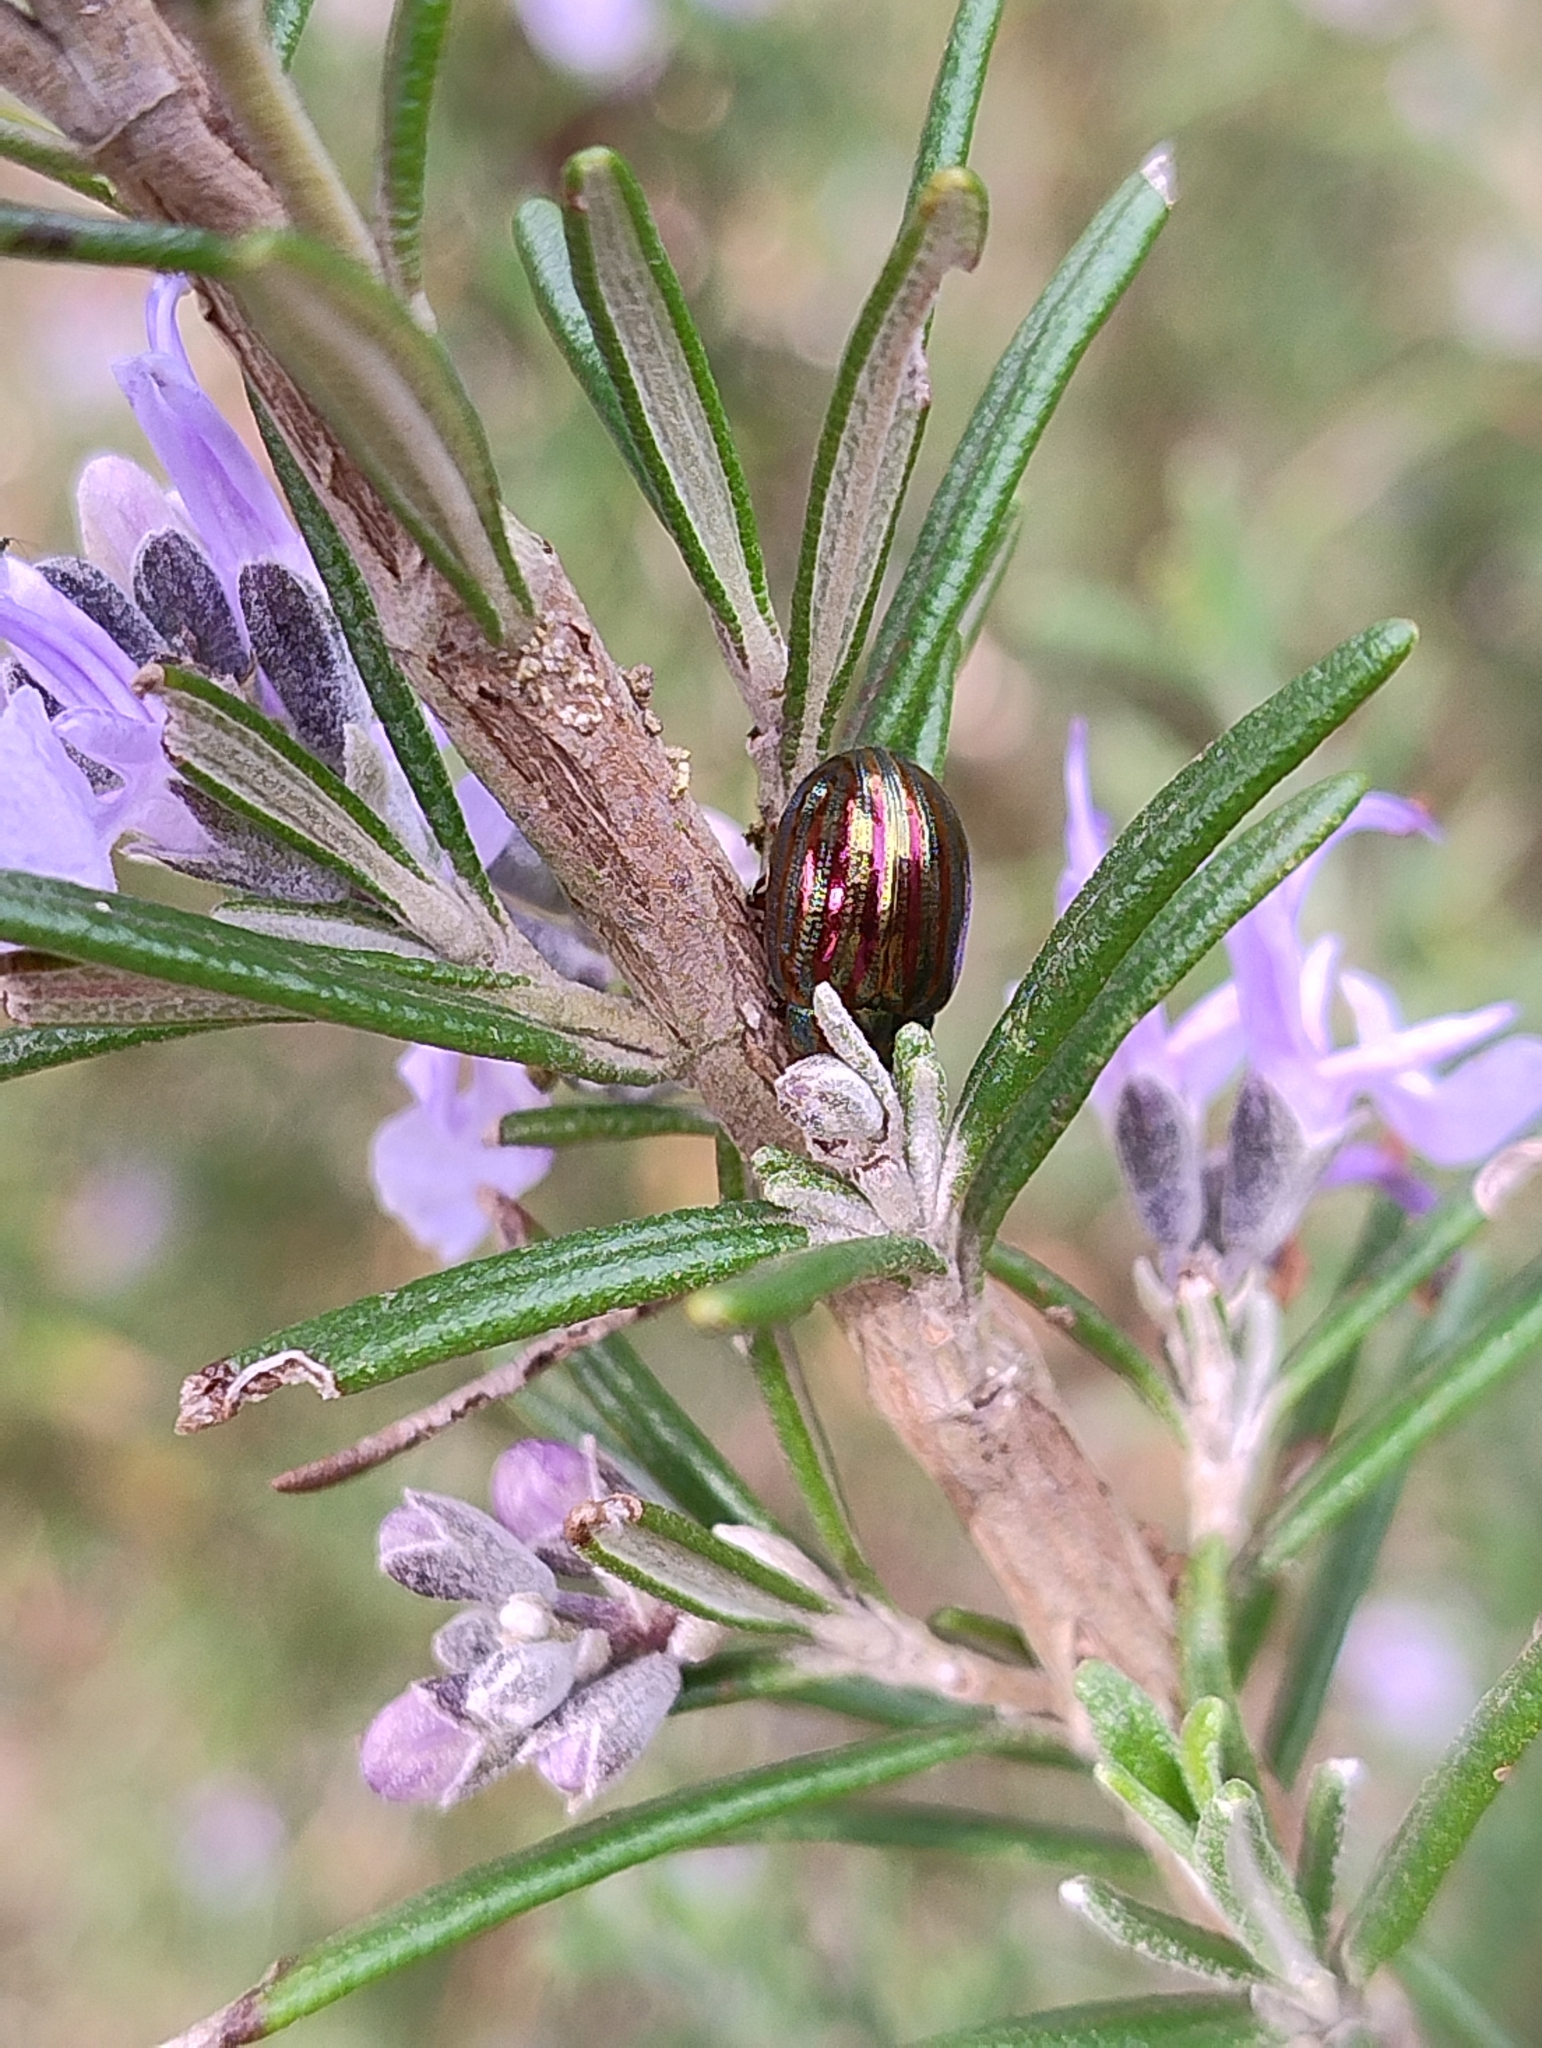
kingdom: Animalia
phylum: Arthropoda
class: Insecta
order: Coleoptera
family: Chrysomelidae
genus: Chrysolina
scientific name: Chrysolina americana
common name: Rosemary beetle
